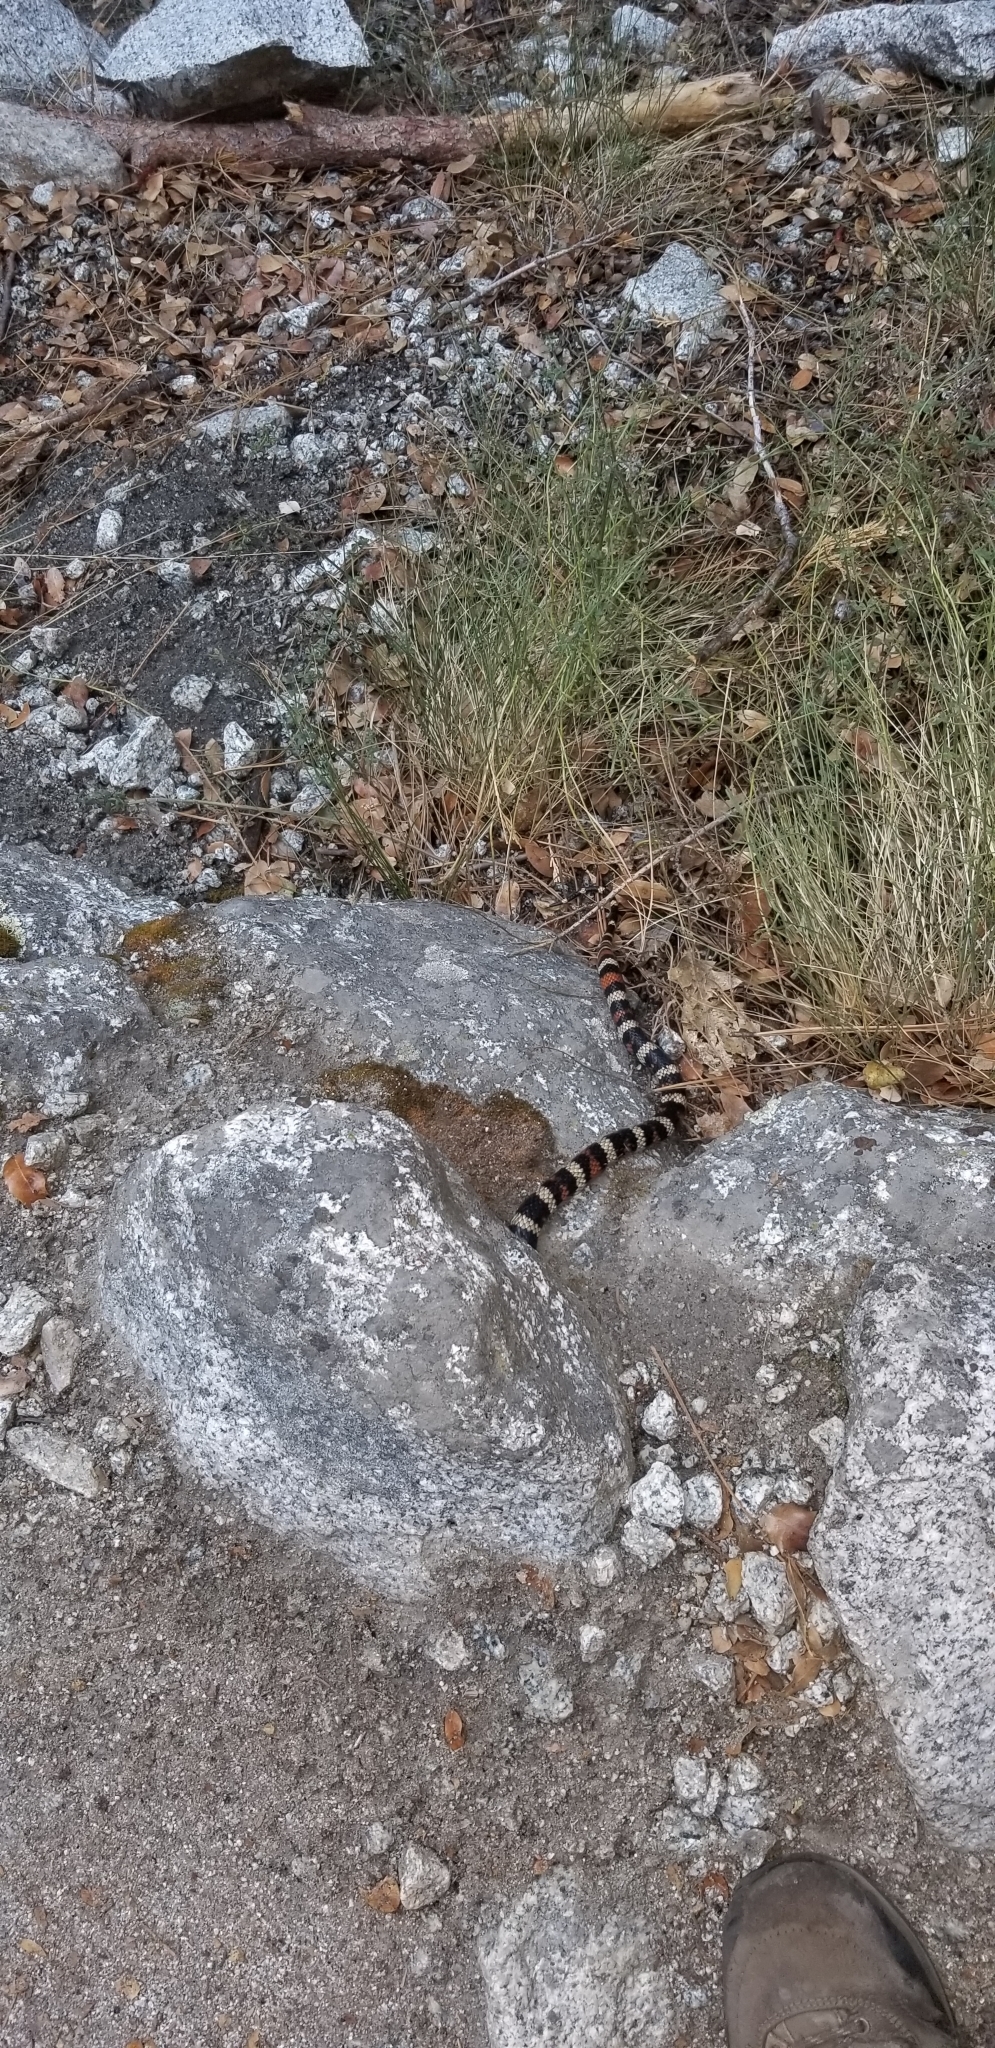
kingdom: Animalia
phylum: Chordata
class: Squamata
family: Colubridae
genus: Lampropeltis
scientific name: Lampropeltis zonata
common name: California mountain kingsnake
